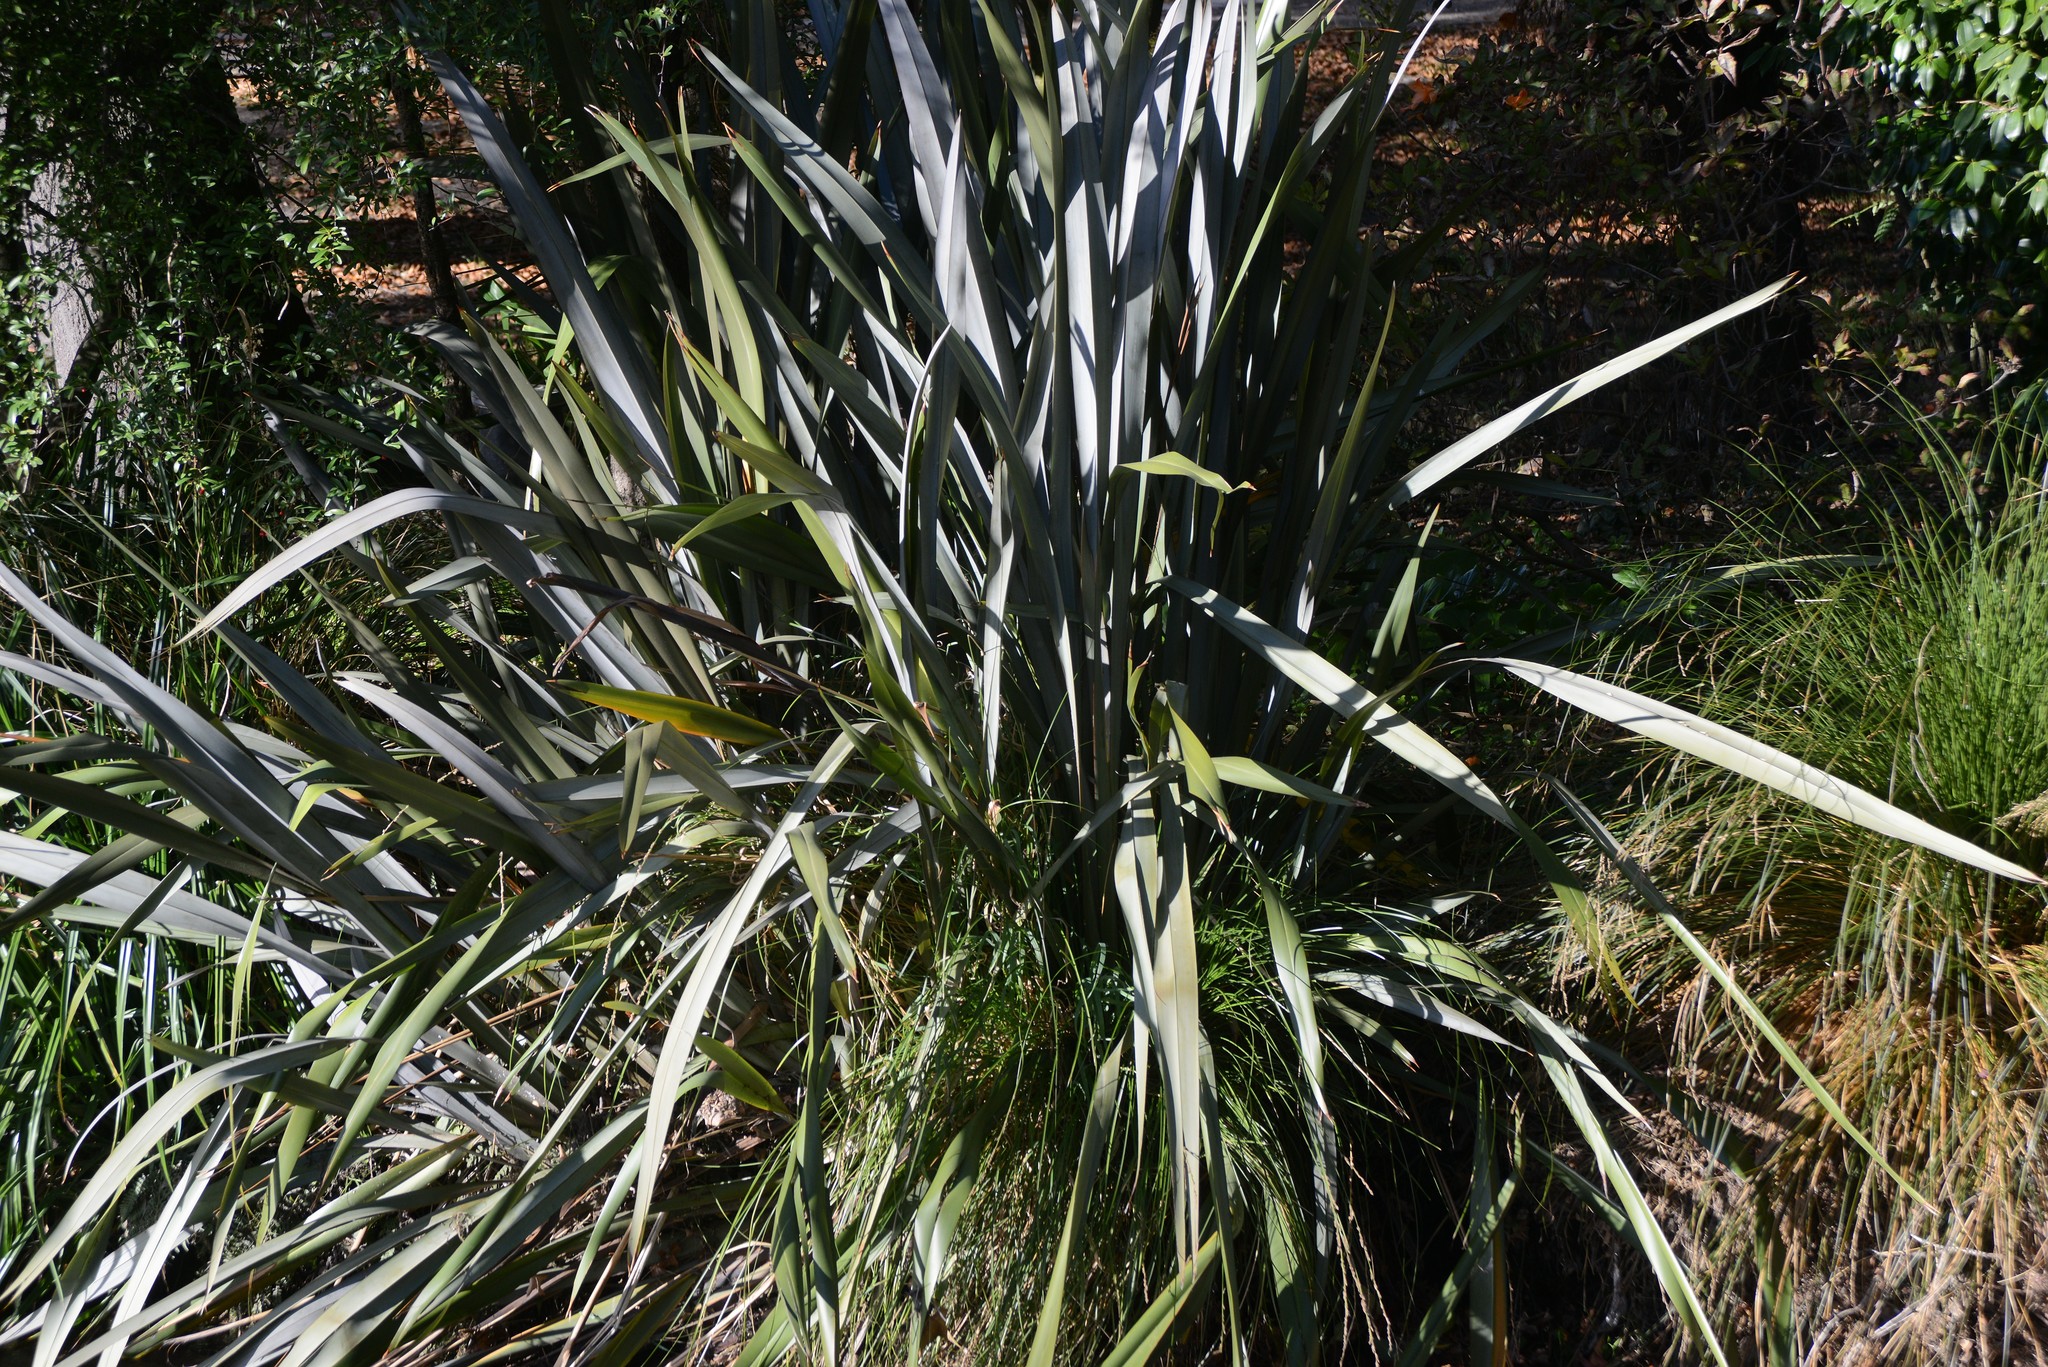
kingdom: Plantae
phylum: Tracheophyta
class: Liliopsida
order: Asparagales
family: Asphodelaceae
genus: Phormium
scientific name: Phormium tenax
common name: New zealand flax
